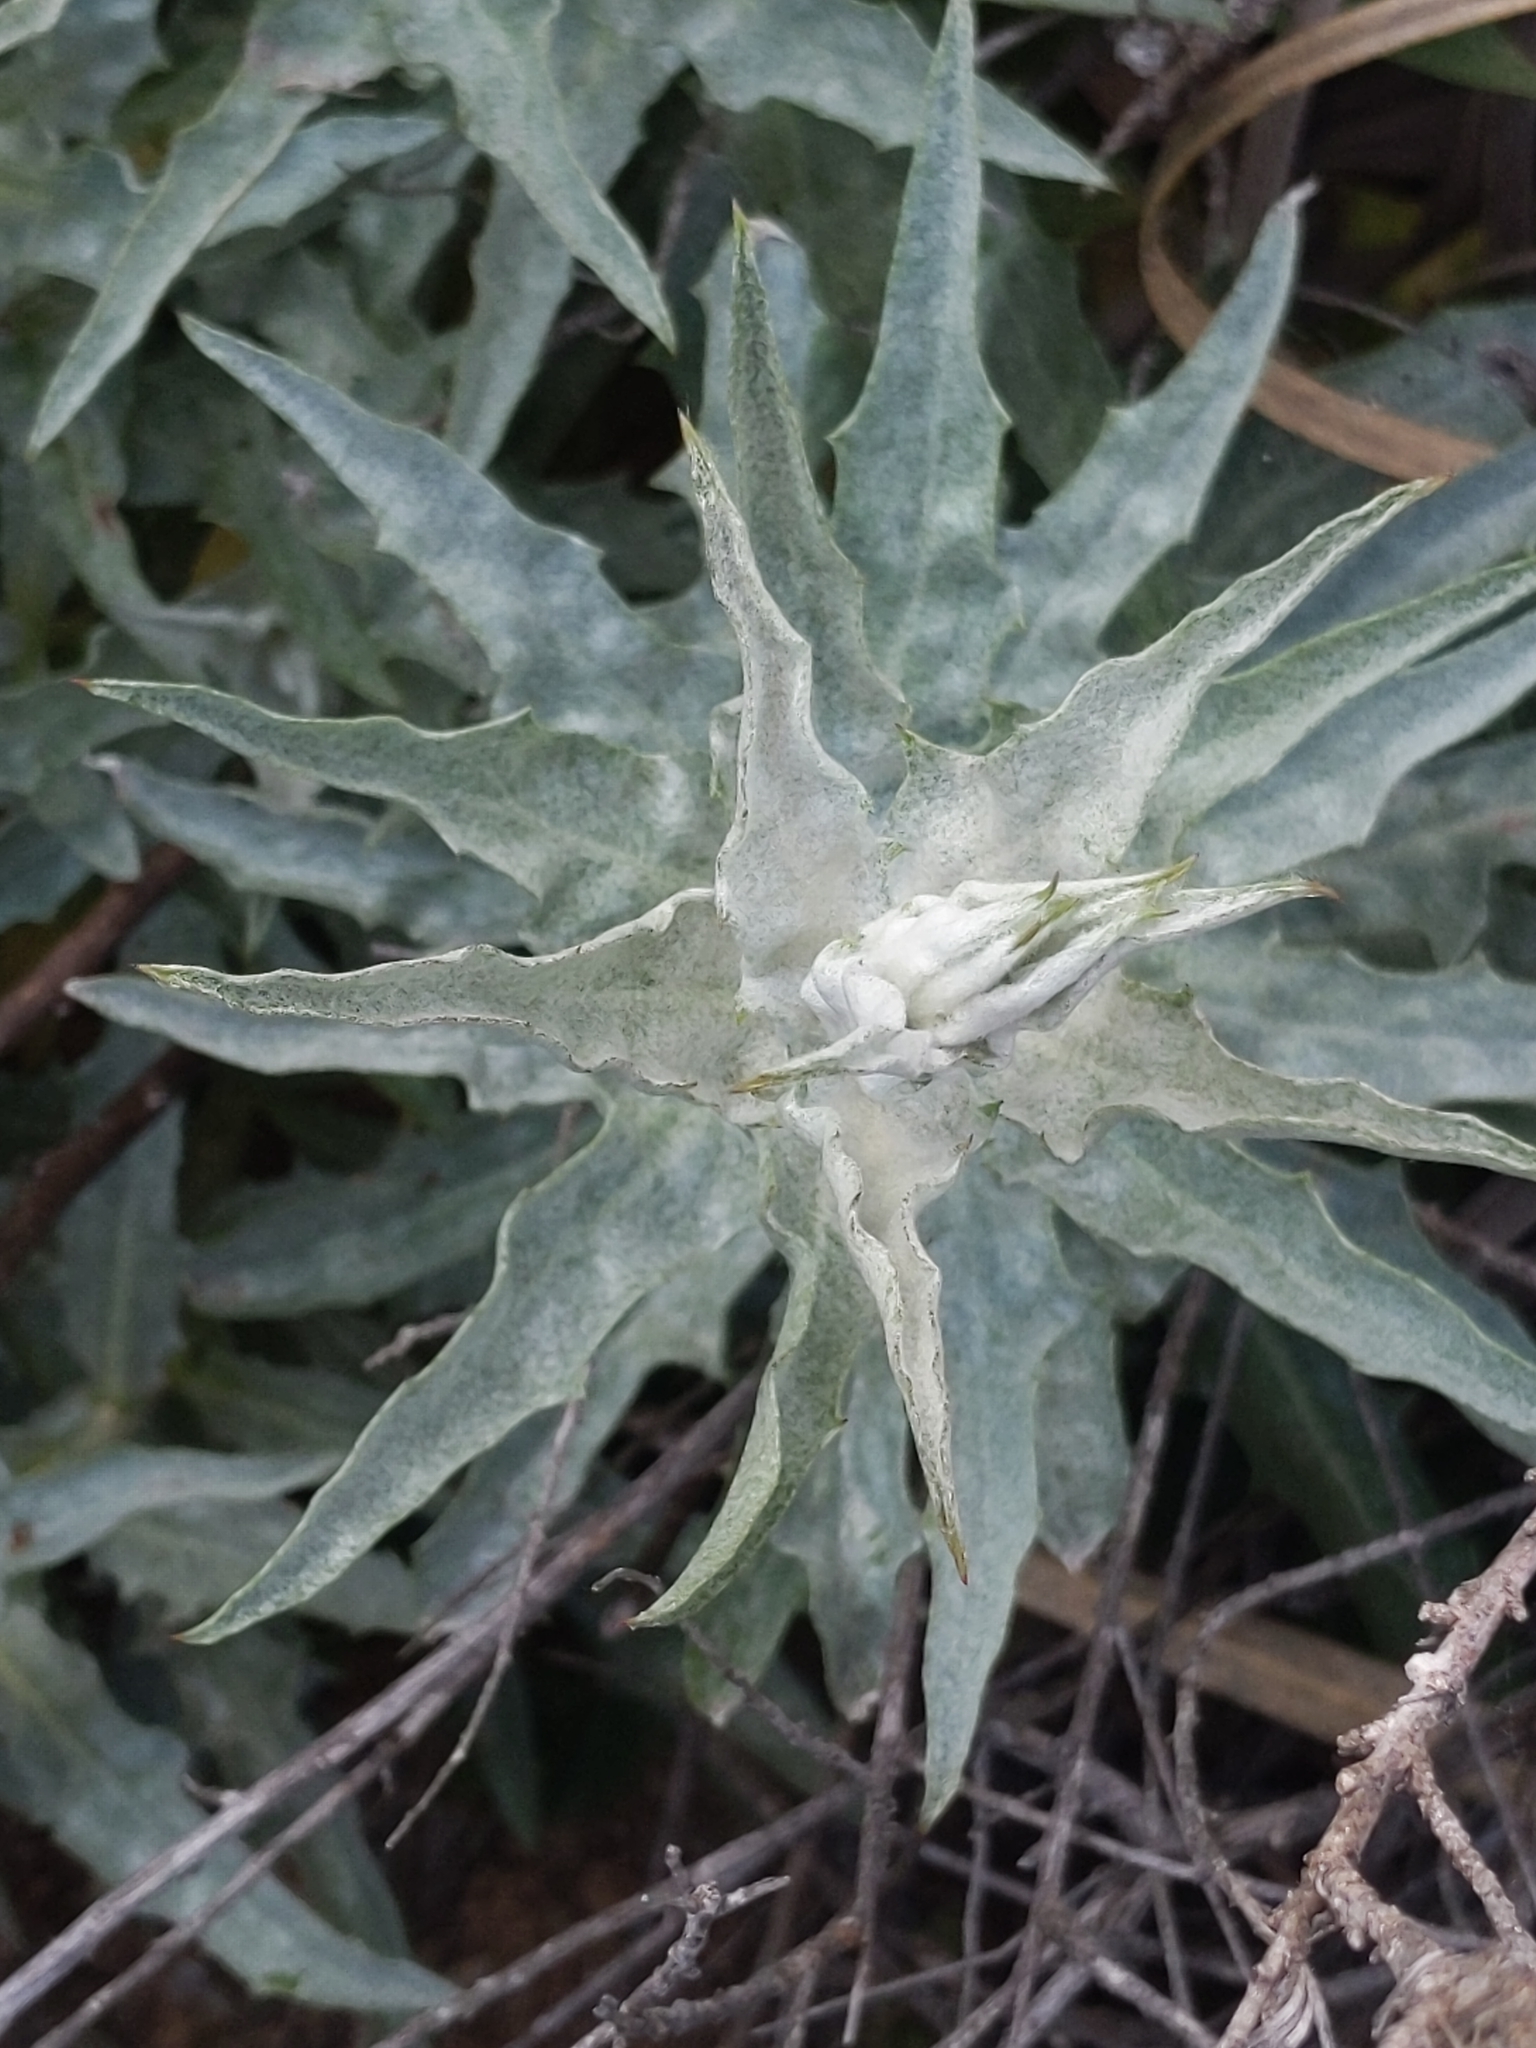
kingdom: Plantae
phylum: Tracheophyta
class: Magnoliopsida
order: Asterales
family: Asteraceae
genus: Stephanomeria
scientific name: Stephanomeria cichoriacea
